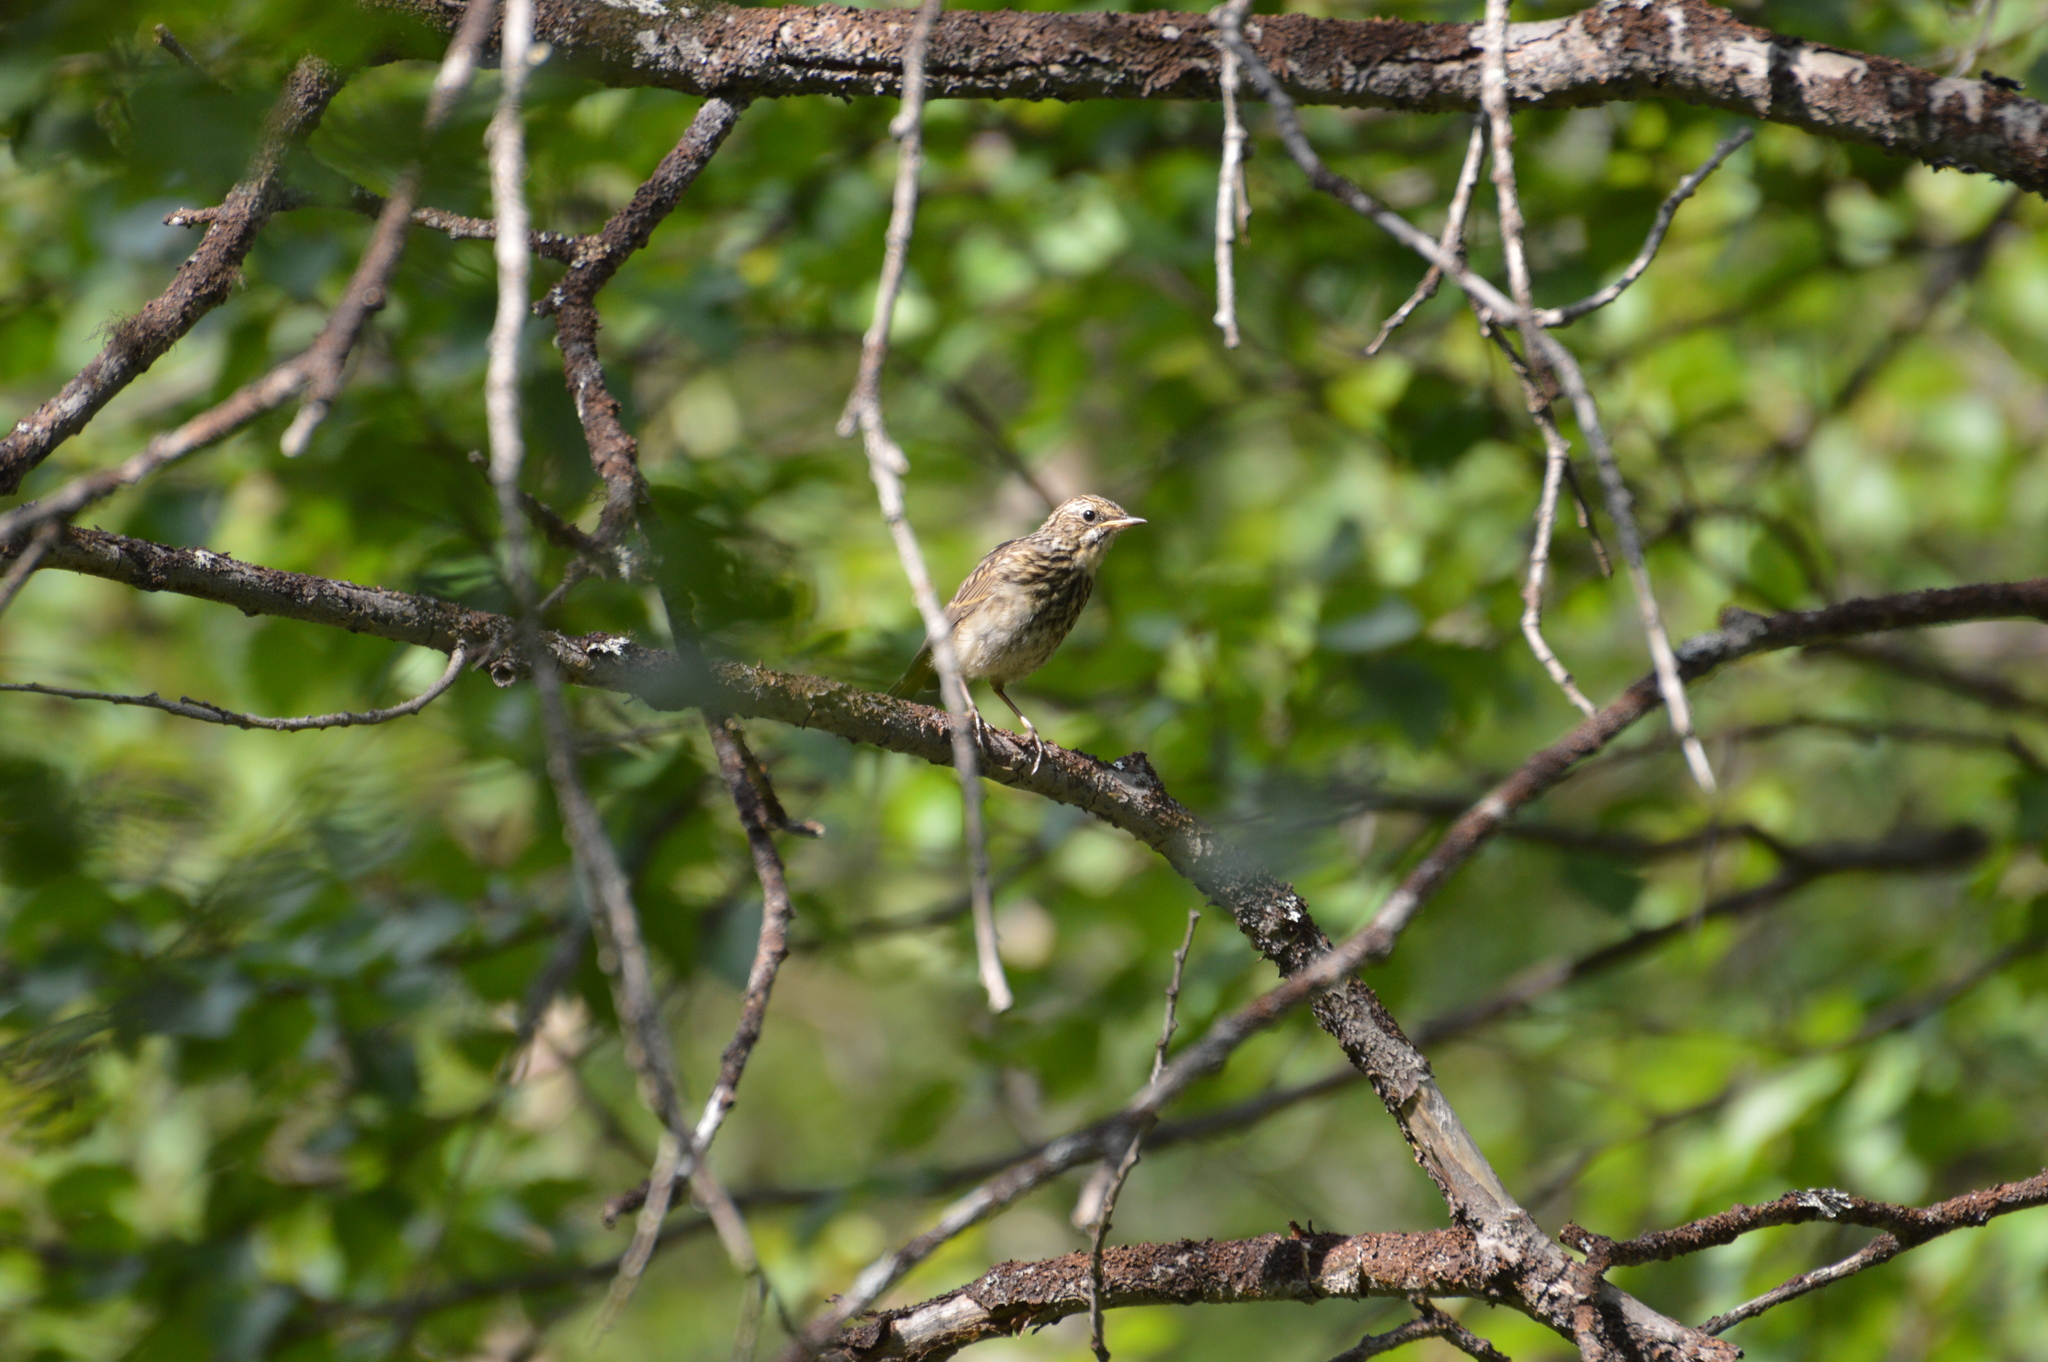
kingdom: Animalia
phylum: Chordata
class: Aves
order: Passeriformes
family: Muscicapidae
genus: Luscinia
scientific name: Luscinia svecica
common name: Bluethroat
